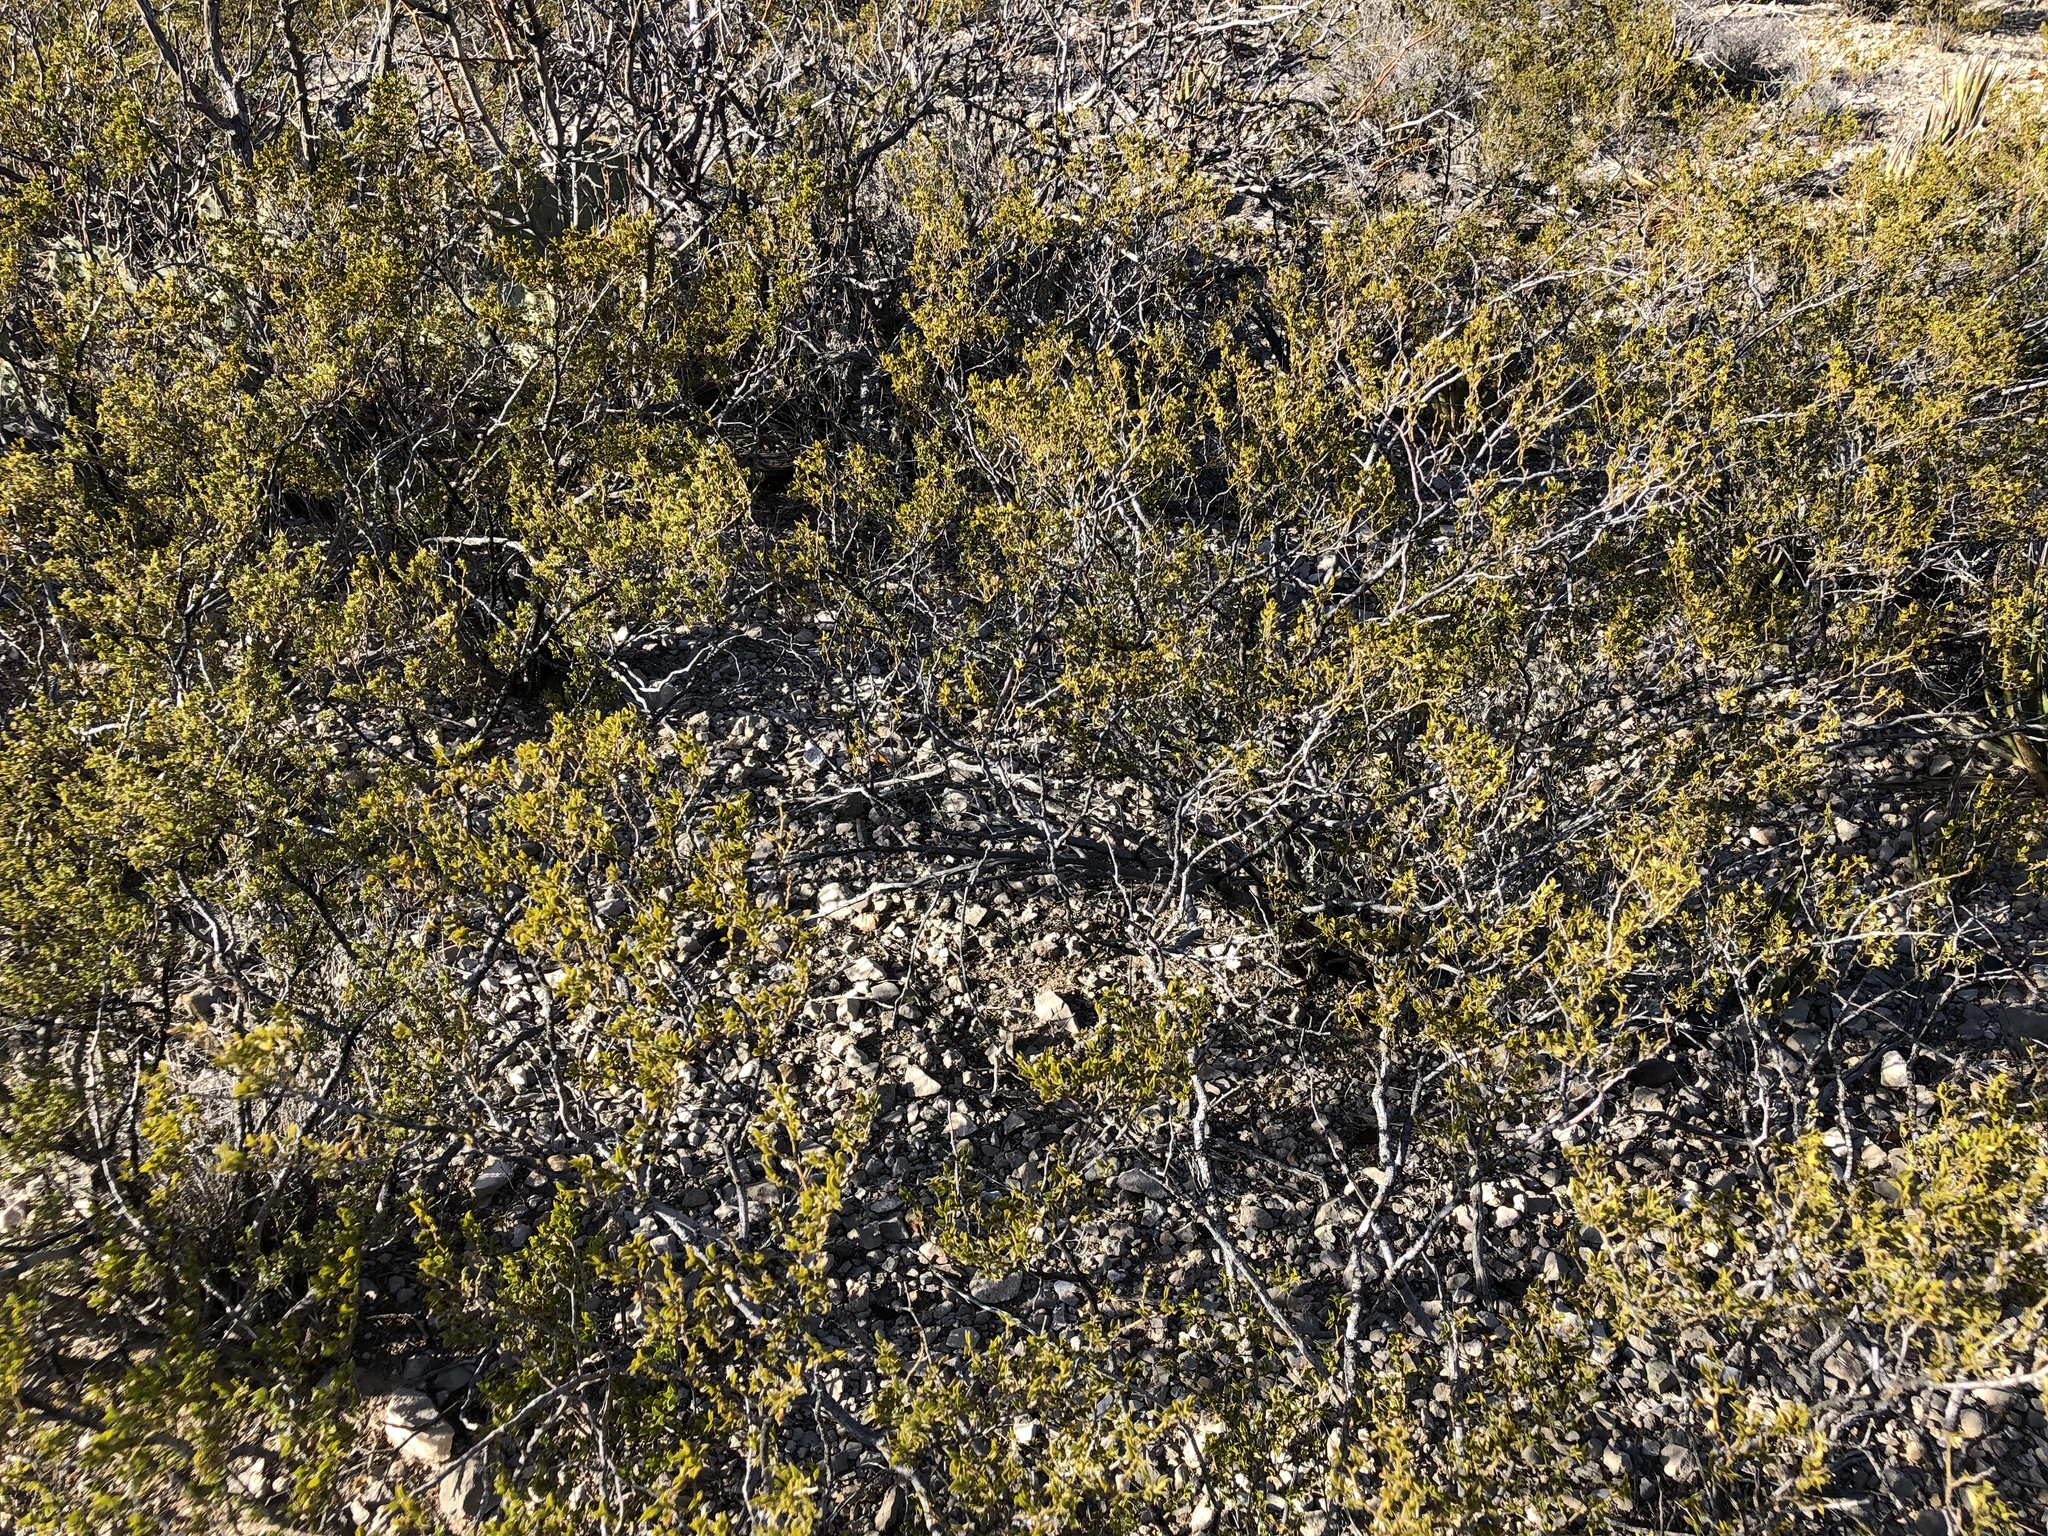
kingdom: Plantae
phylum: Tracheophyta
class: Magnoliopsida
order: Zygophyllales
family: Zygophyllaceae
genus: Larrea
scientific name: Larrea tridentata
